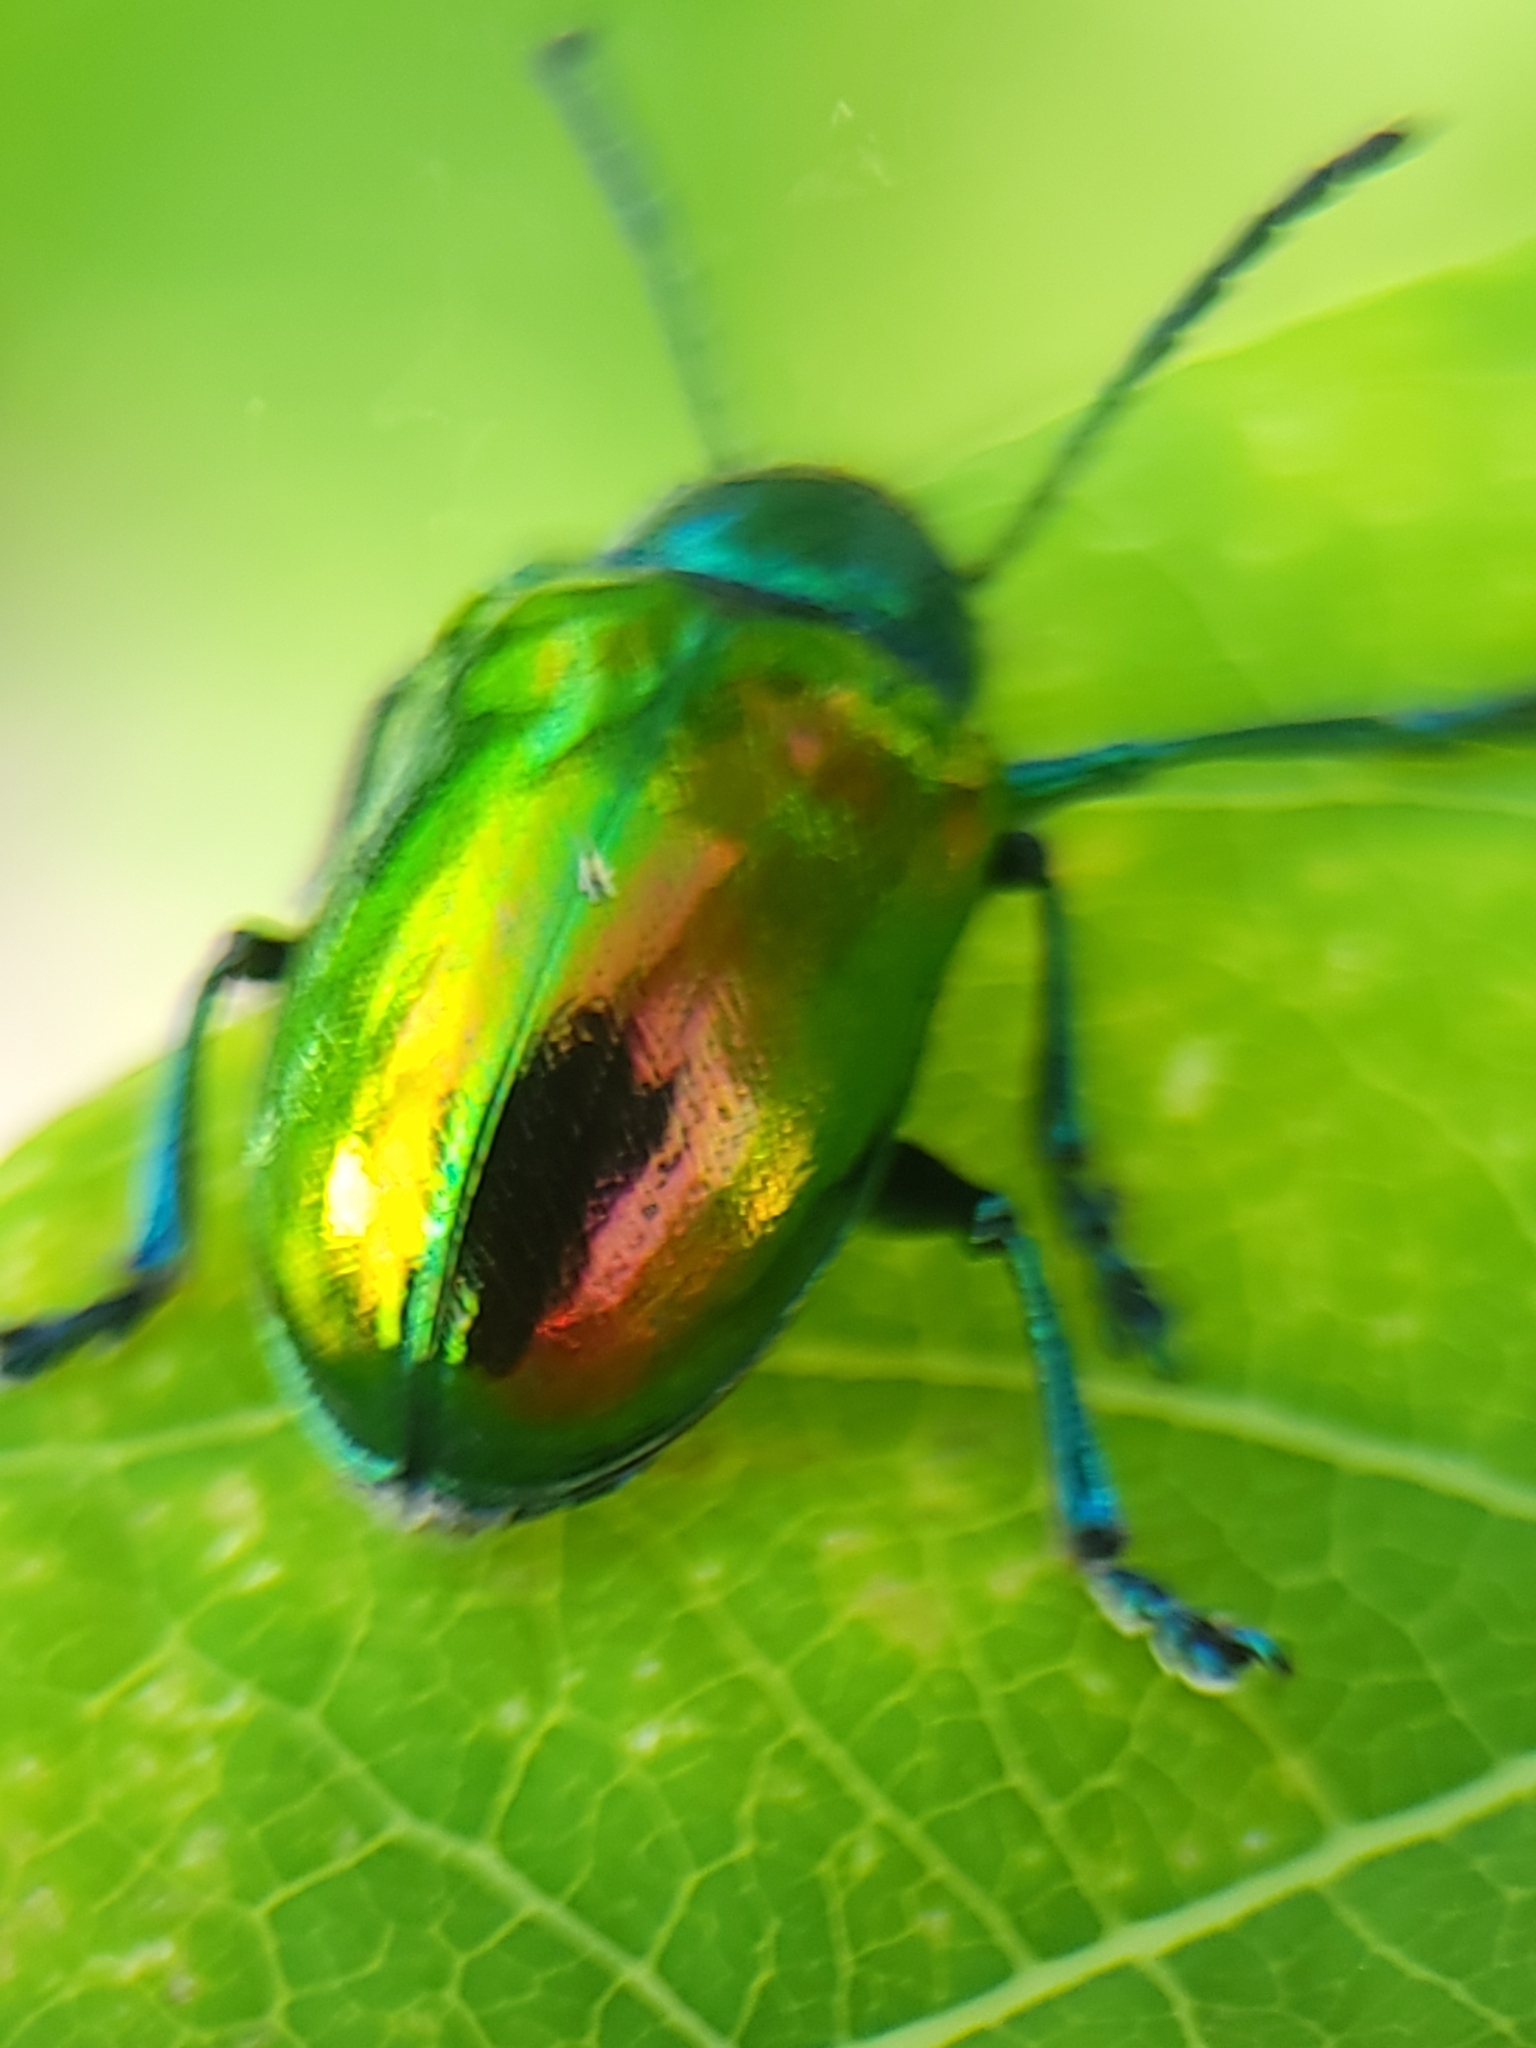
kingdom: Animalia
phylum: Arthropoda
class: Insecta
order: Coleoptera
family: Chrysomelidae
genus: Chrysochus
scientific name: Chrysochus auratus
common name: Dogbane leaf beetle
